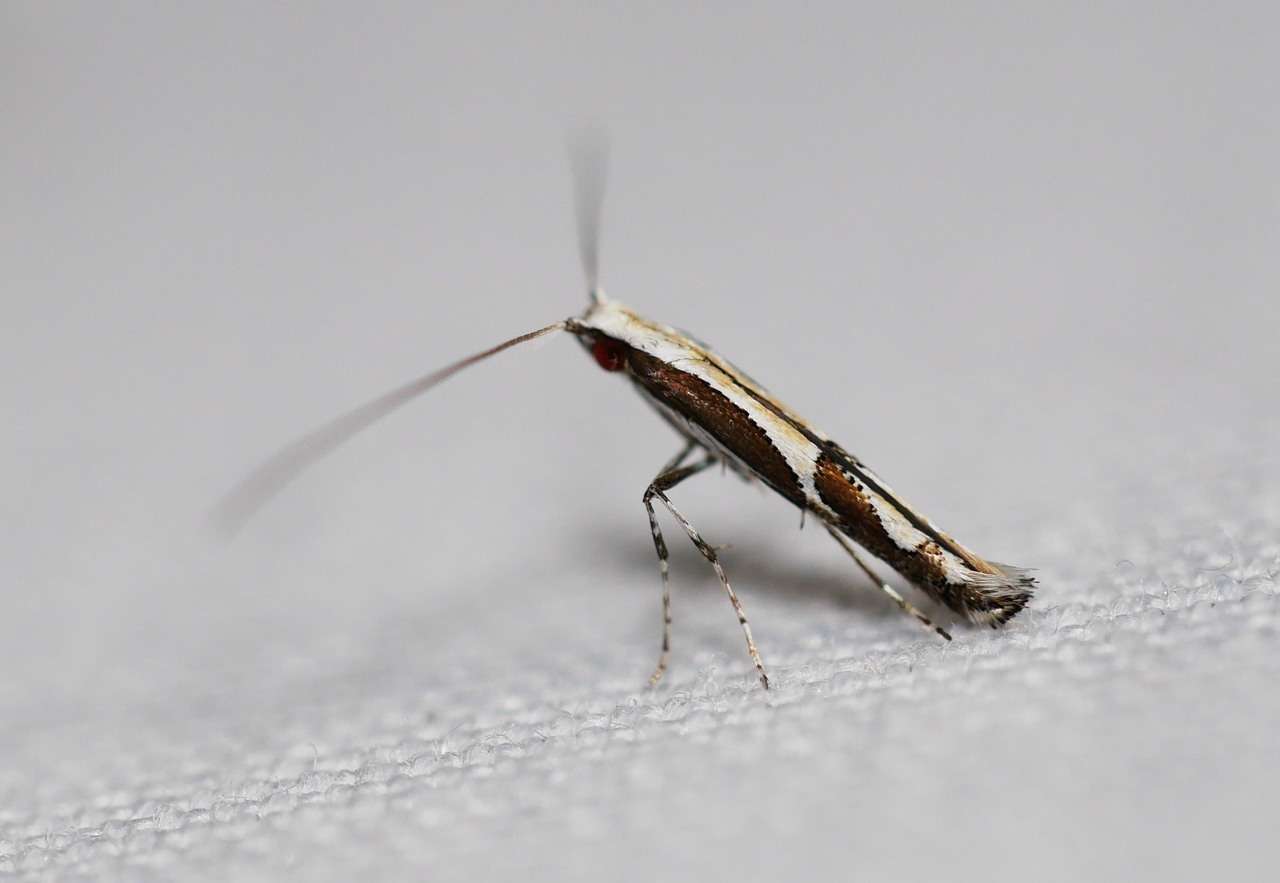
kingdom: Animalia
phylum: Arthropoda
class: Insecta
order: Lepidoptera
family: Gracillariidae
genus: Acrocercops
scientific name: Acrocercops ophiodes
